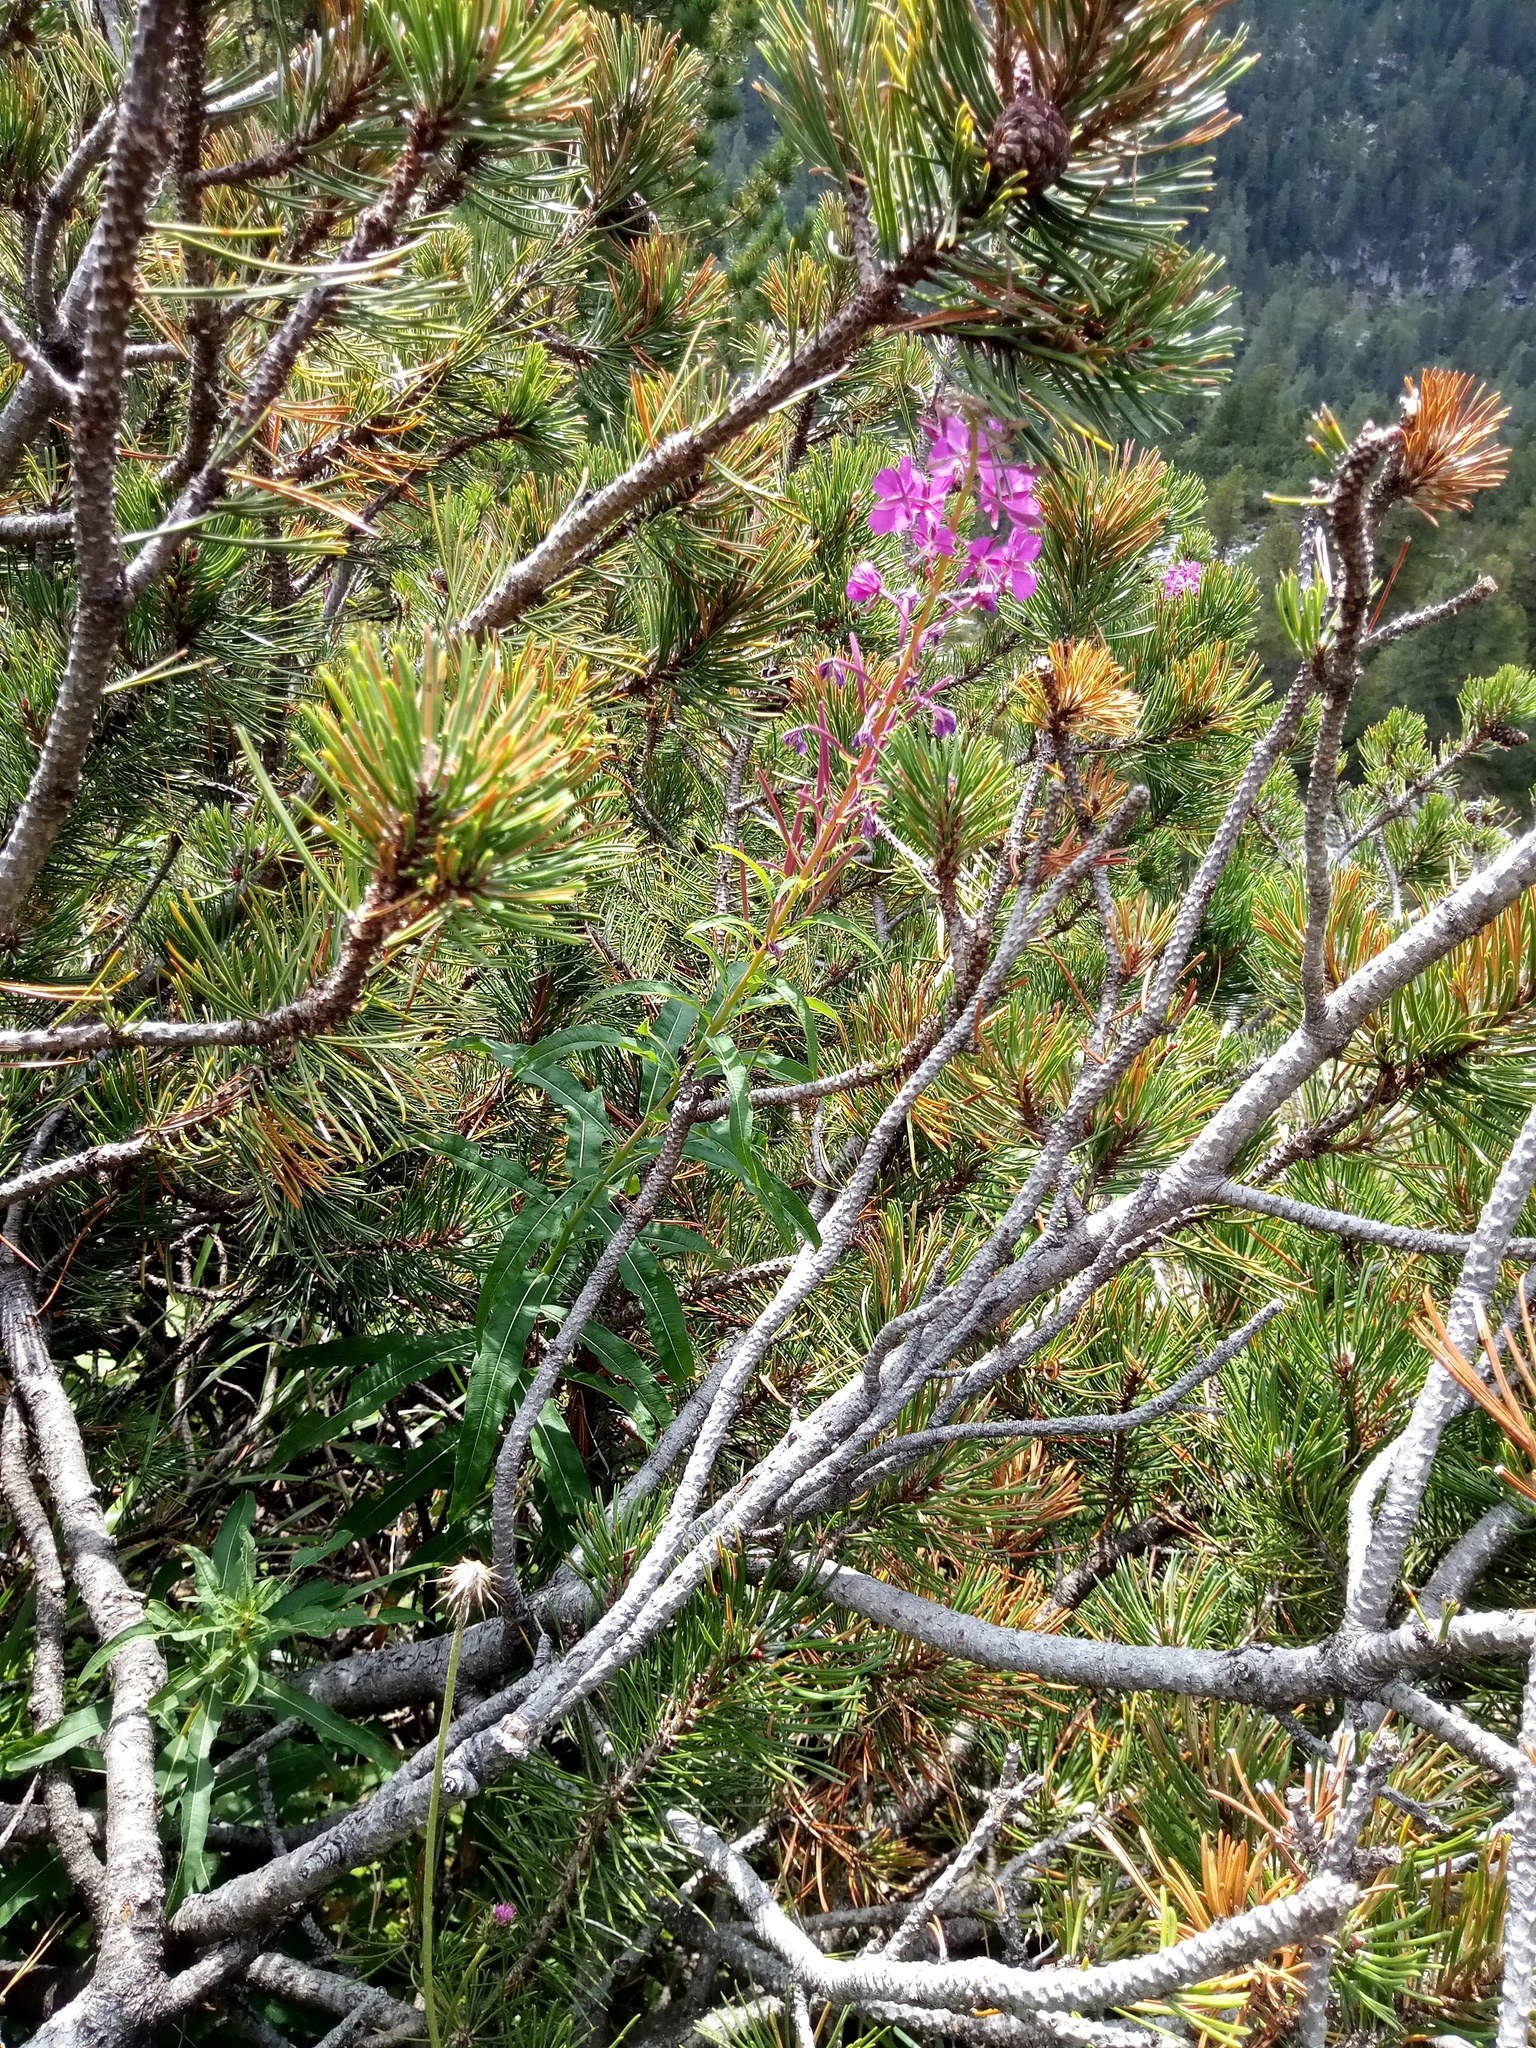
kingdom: Plantae
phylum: Tracheophyta
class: Magnoliopsida
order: Myrtales
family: Onagraceae
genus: Chamaenerion
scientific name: Chamaenerion angustifolium
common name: Fireweed
